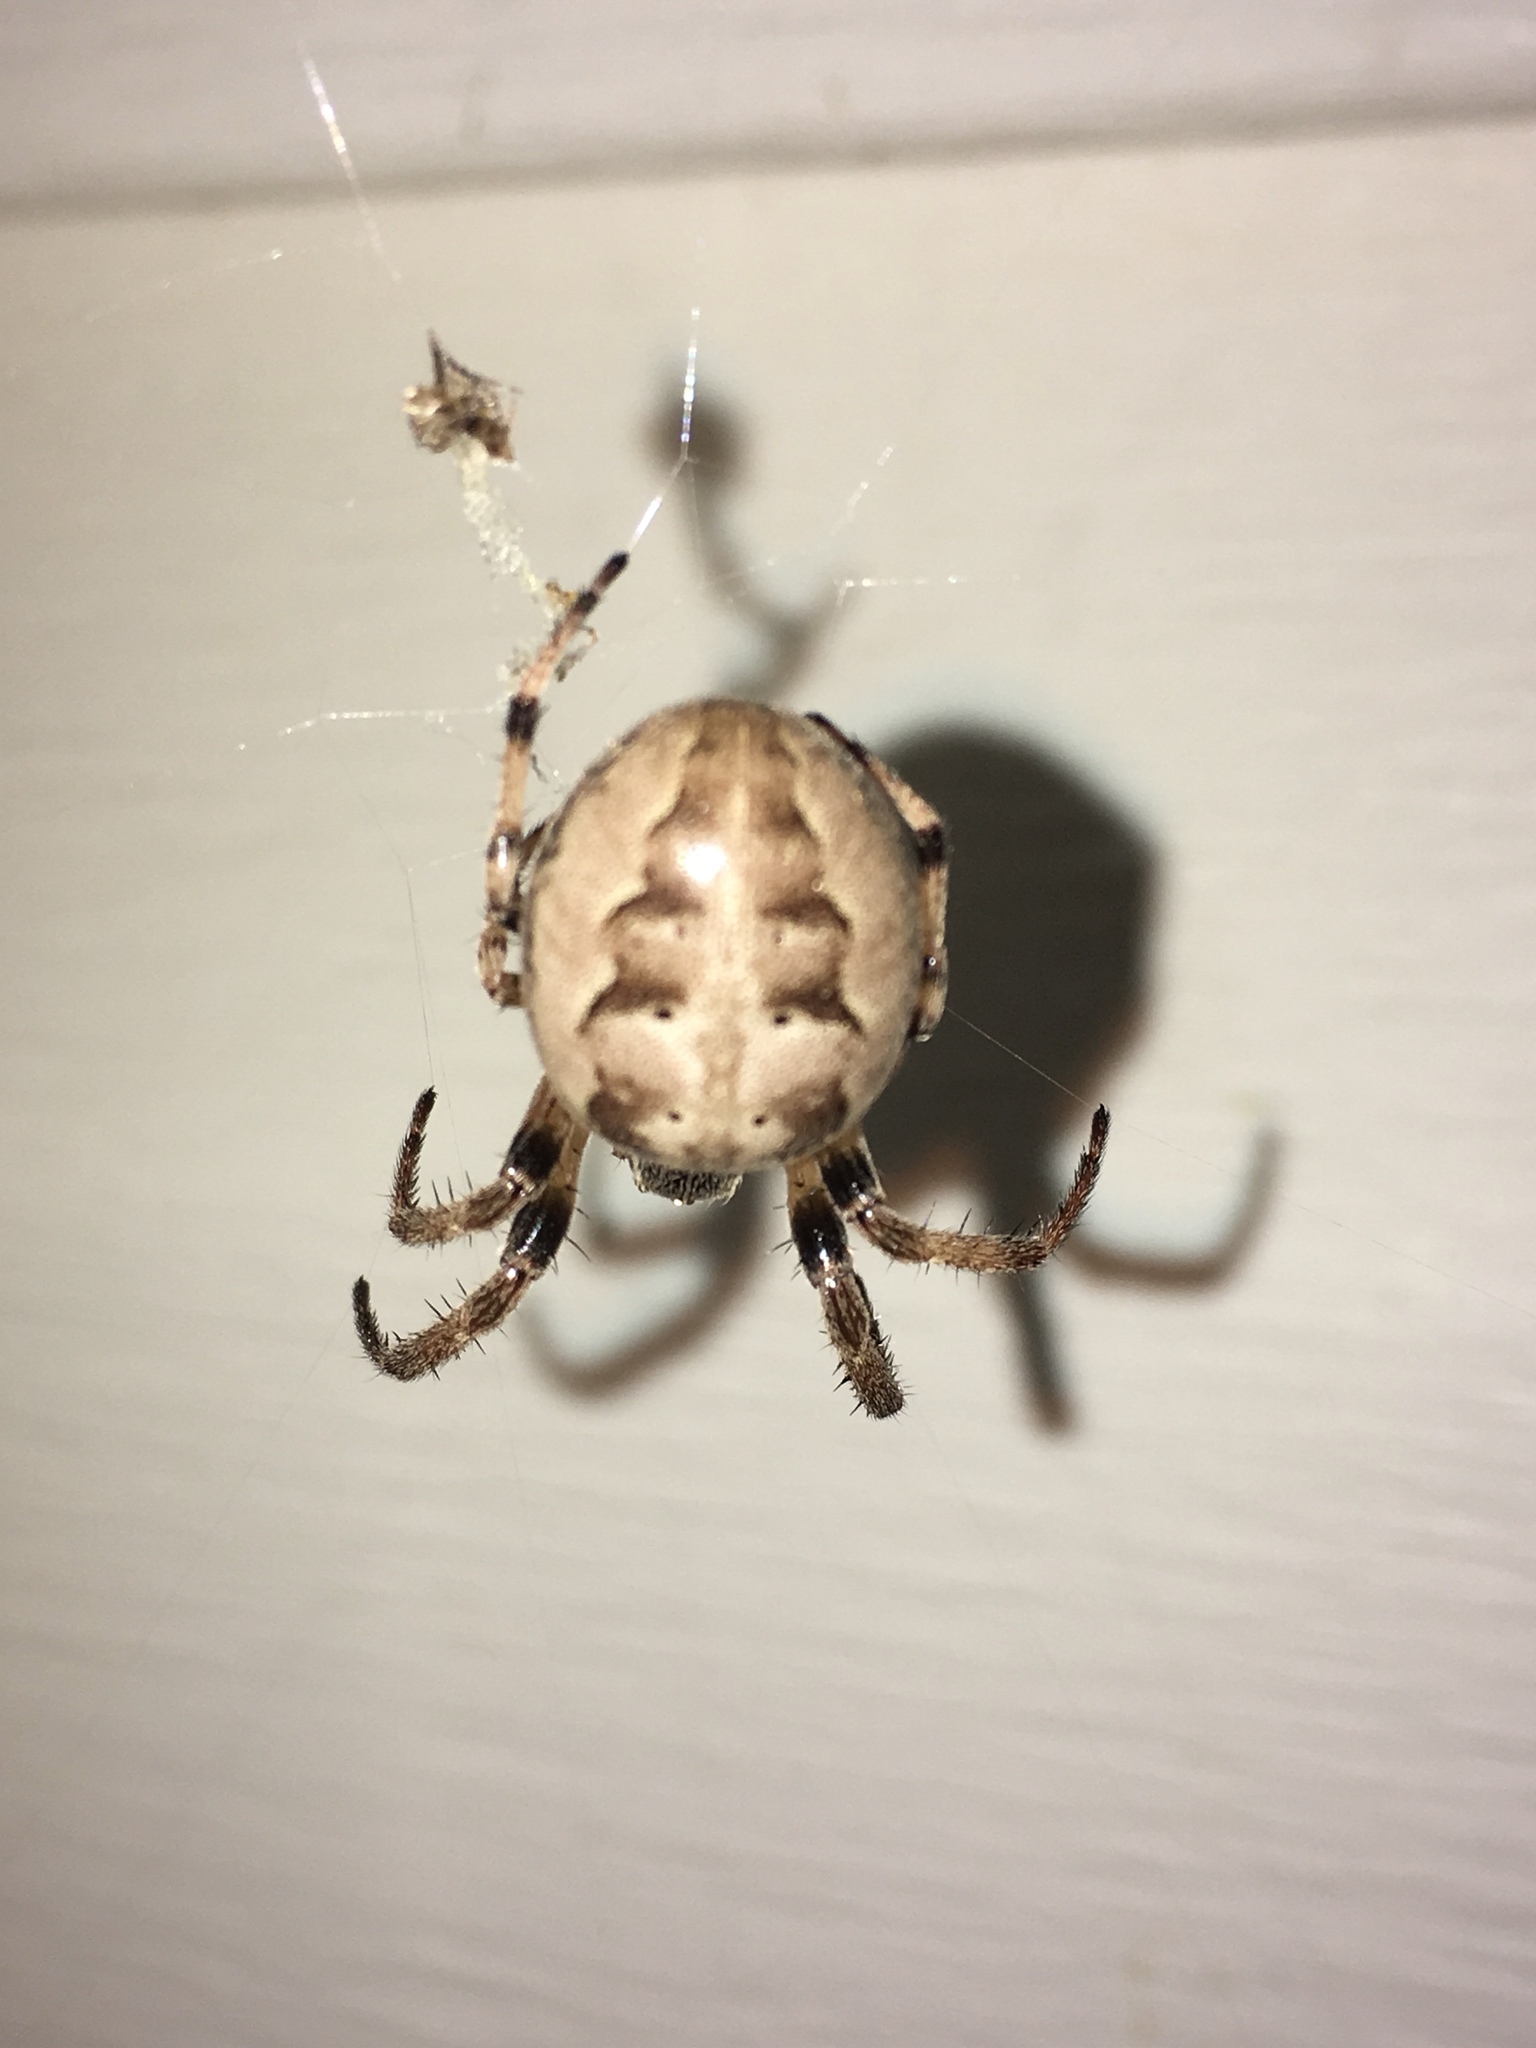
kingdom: Animalia
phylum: Arthropoda
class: Arachnida
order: Araneae
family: Araneidae
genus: Larinioides
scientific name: Larinioides cornutus
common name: Furrow orbweaver
